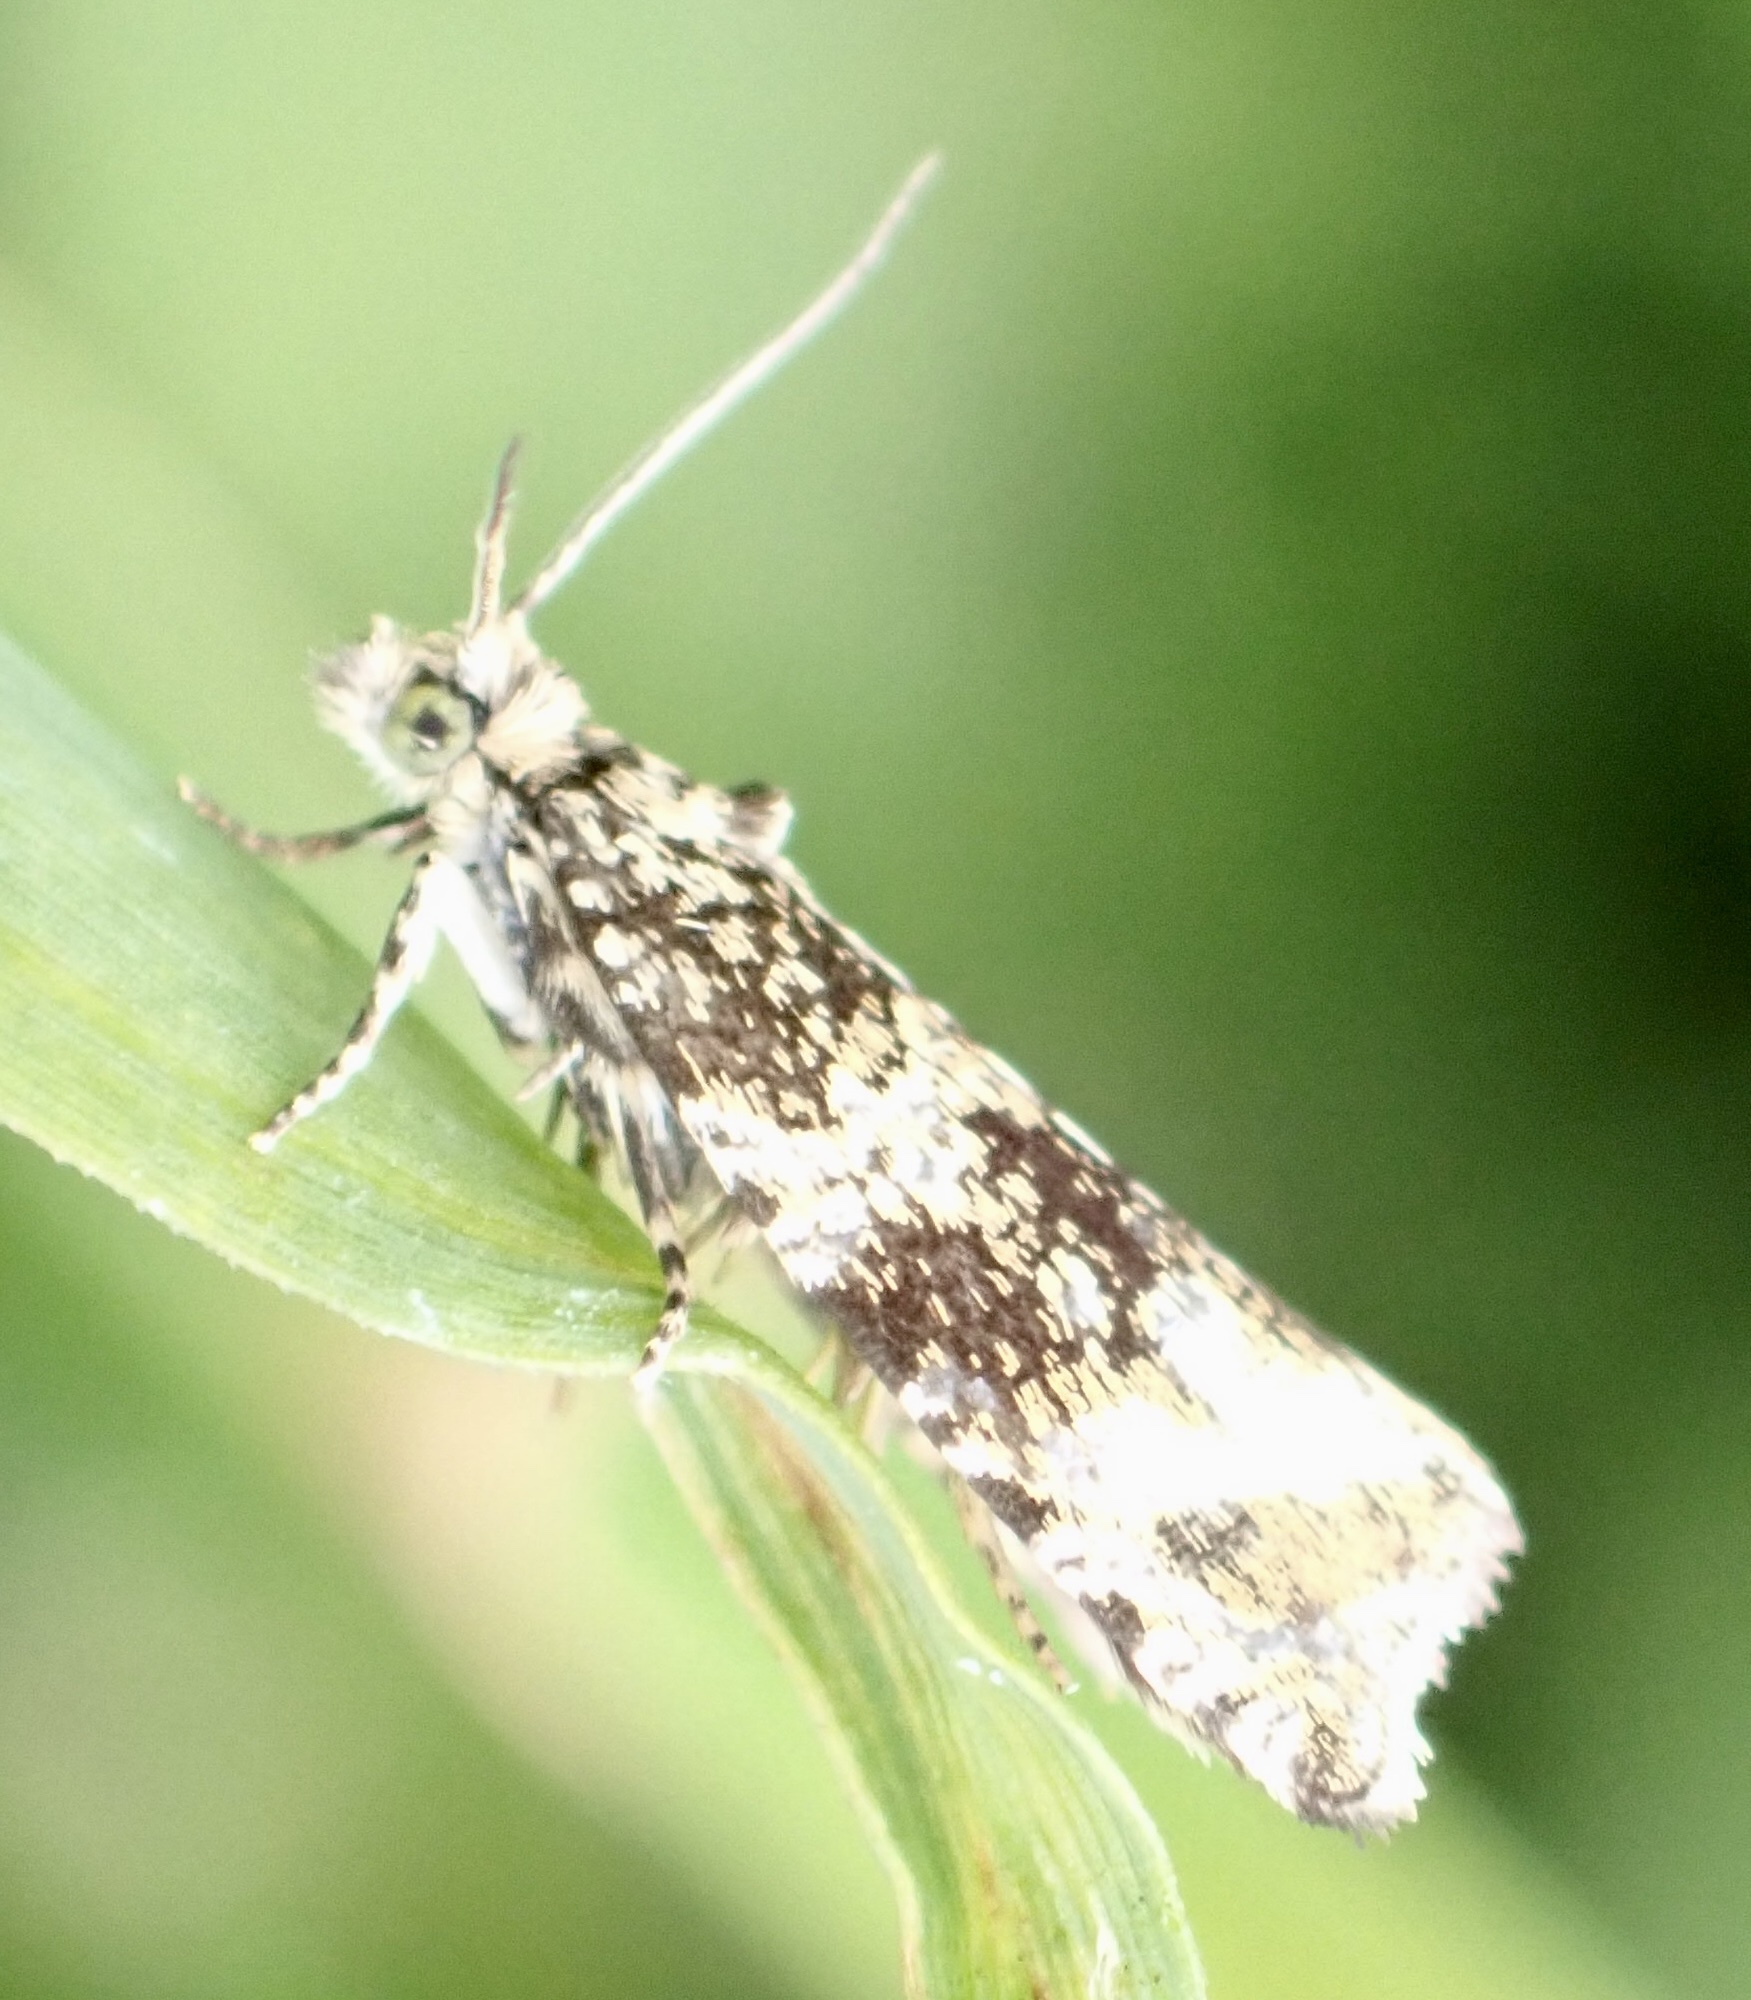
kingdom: Animalia
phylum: Arthropoda
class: Insecta
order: Lepidoptera
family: Tortricidae
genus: Syricoris
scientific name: Syricoris lacunana
